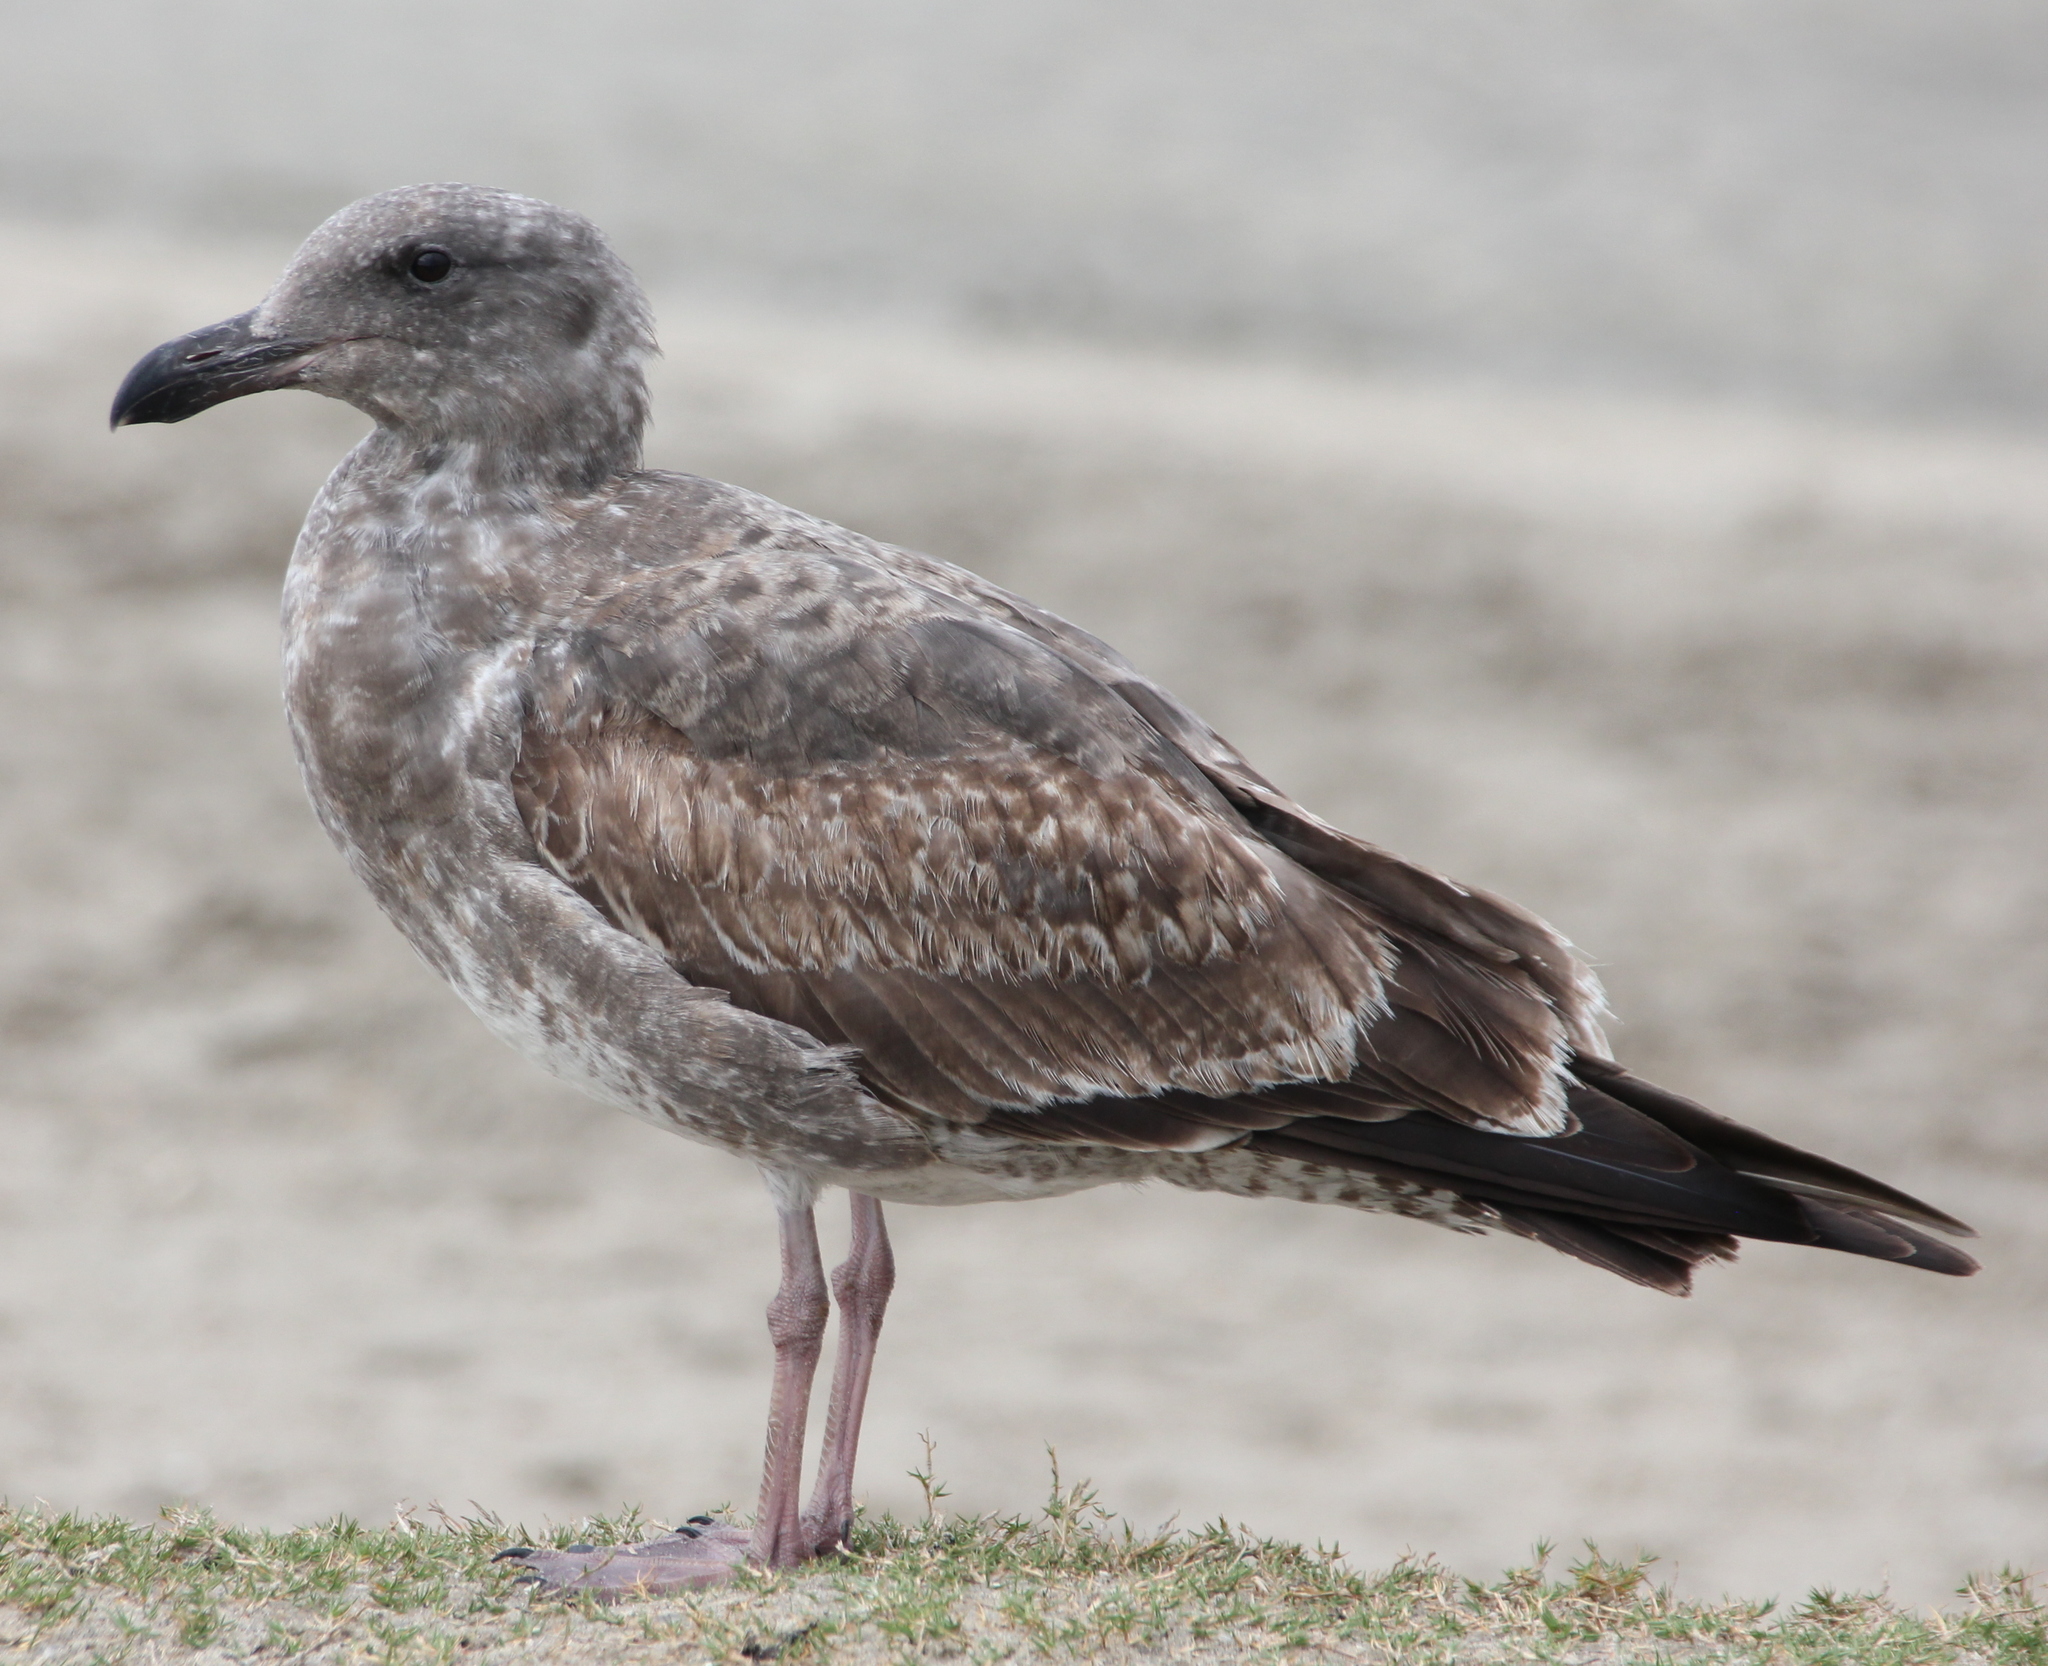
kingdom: Animalia
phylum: Chordata
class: Aves
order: Charadriiformes
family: Laridae
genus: Larus
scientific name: Larus occidentalis
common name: Western gull
